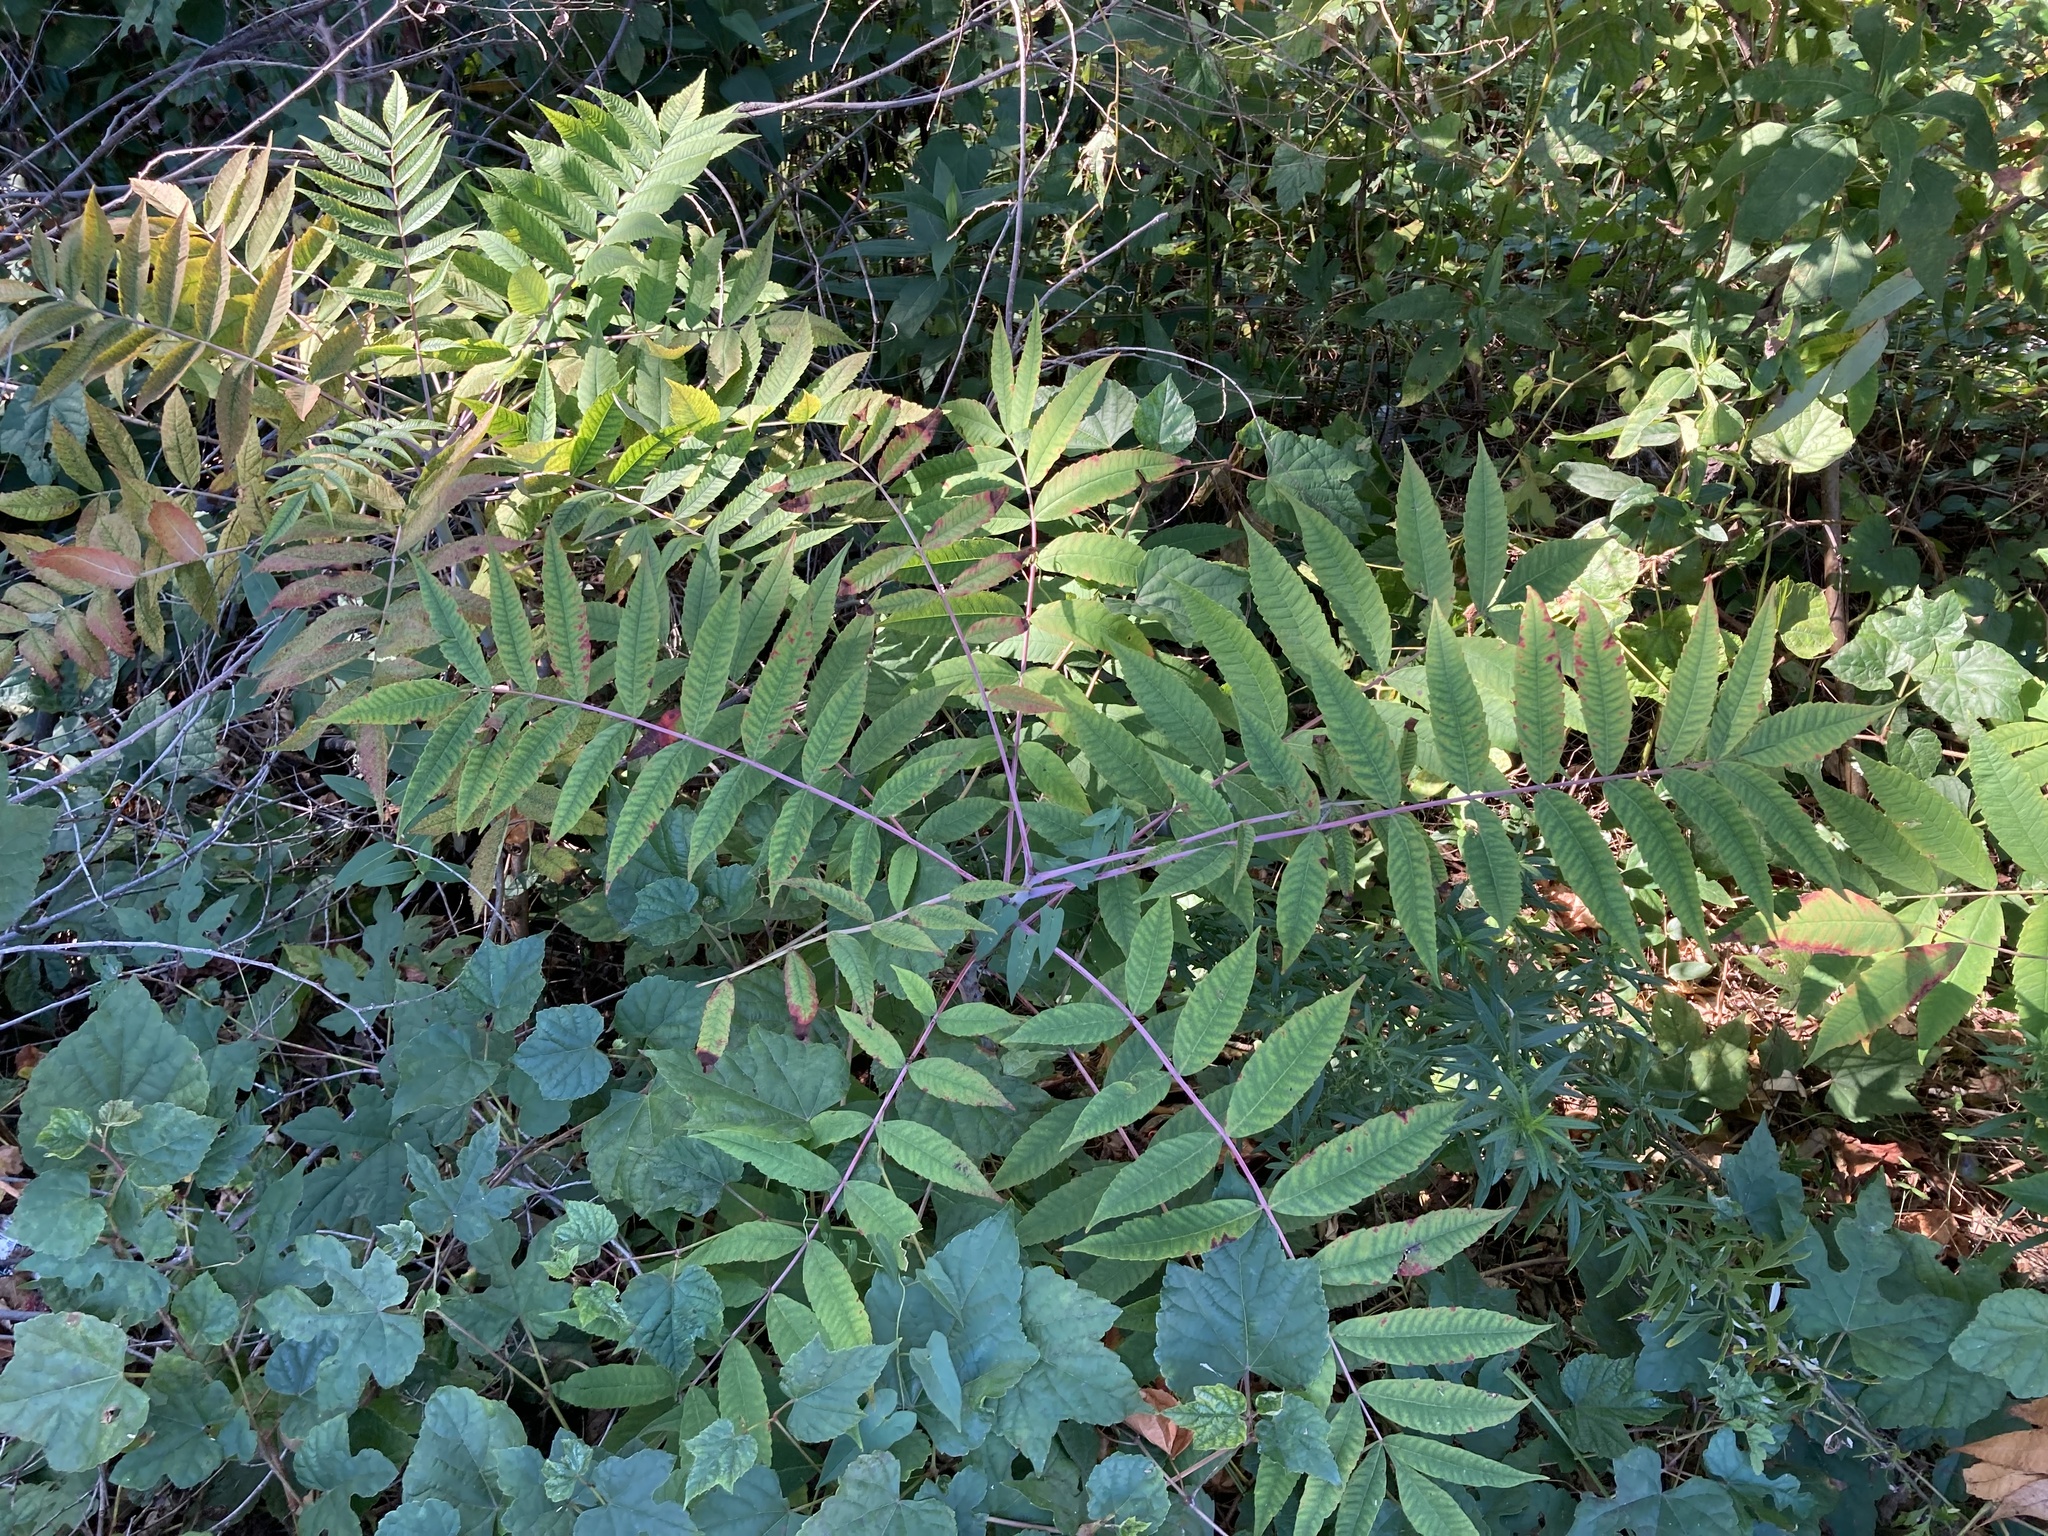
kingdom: Plantae
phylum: Tracheophyta
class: Magnoliopsida
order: Sapindales
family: Anacardiaceae
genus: Rhus
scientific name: Rhus glabra
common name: Scarlet sumac
